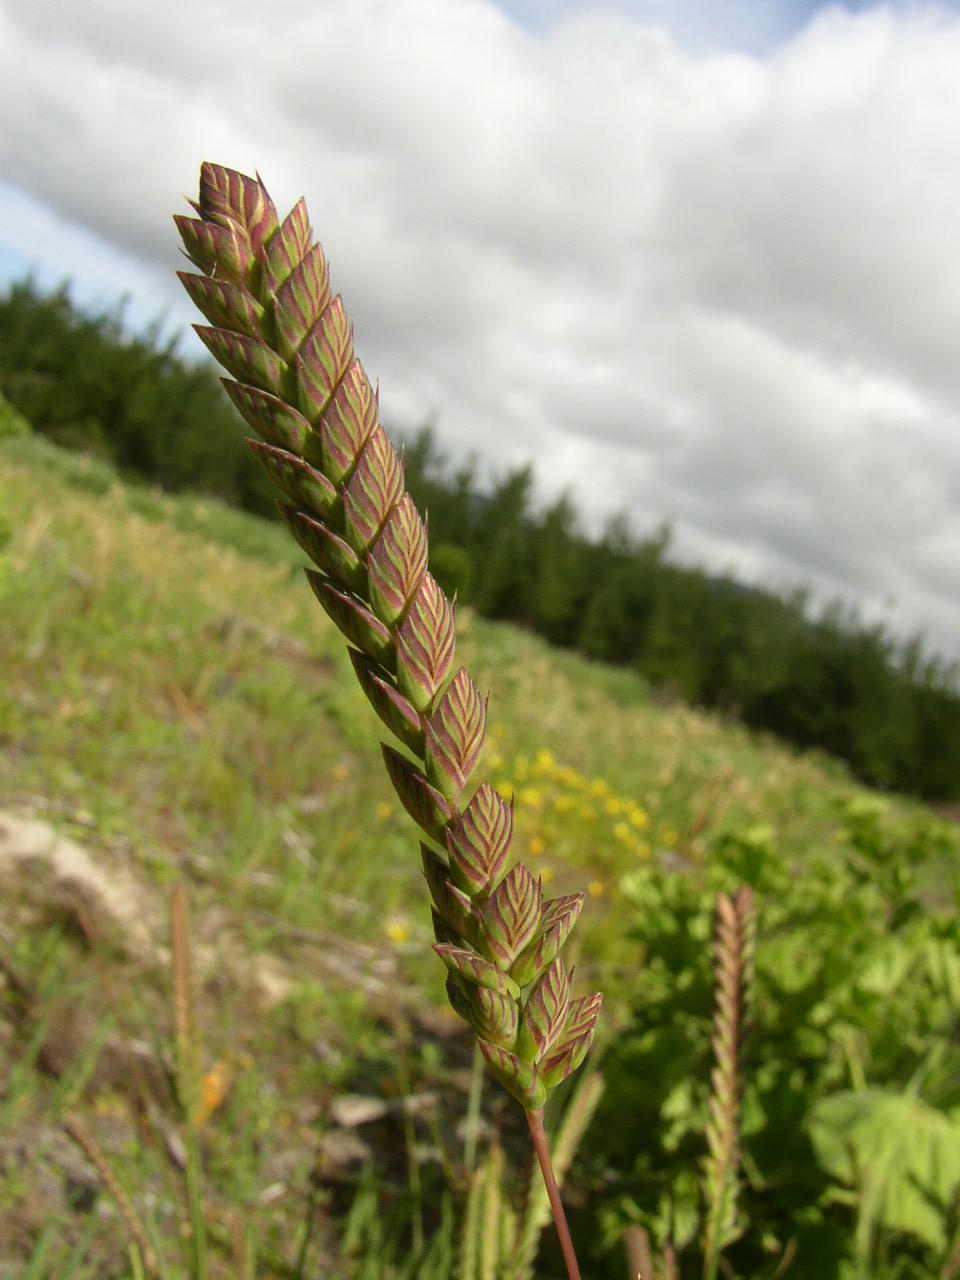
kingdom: Plantae
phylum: Tracheophyta
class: Liliopsida
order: Poales
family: Poaceae
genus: Tribolium
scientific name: Tribolium uniolae
